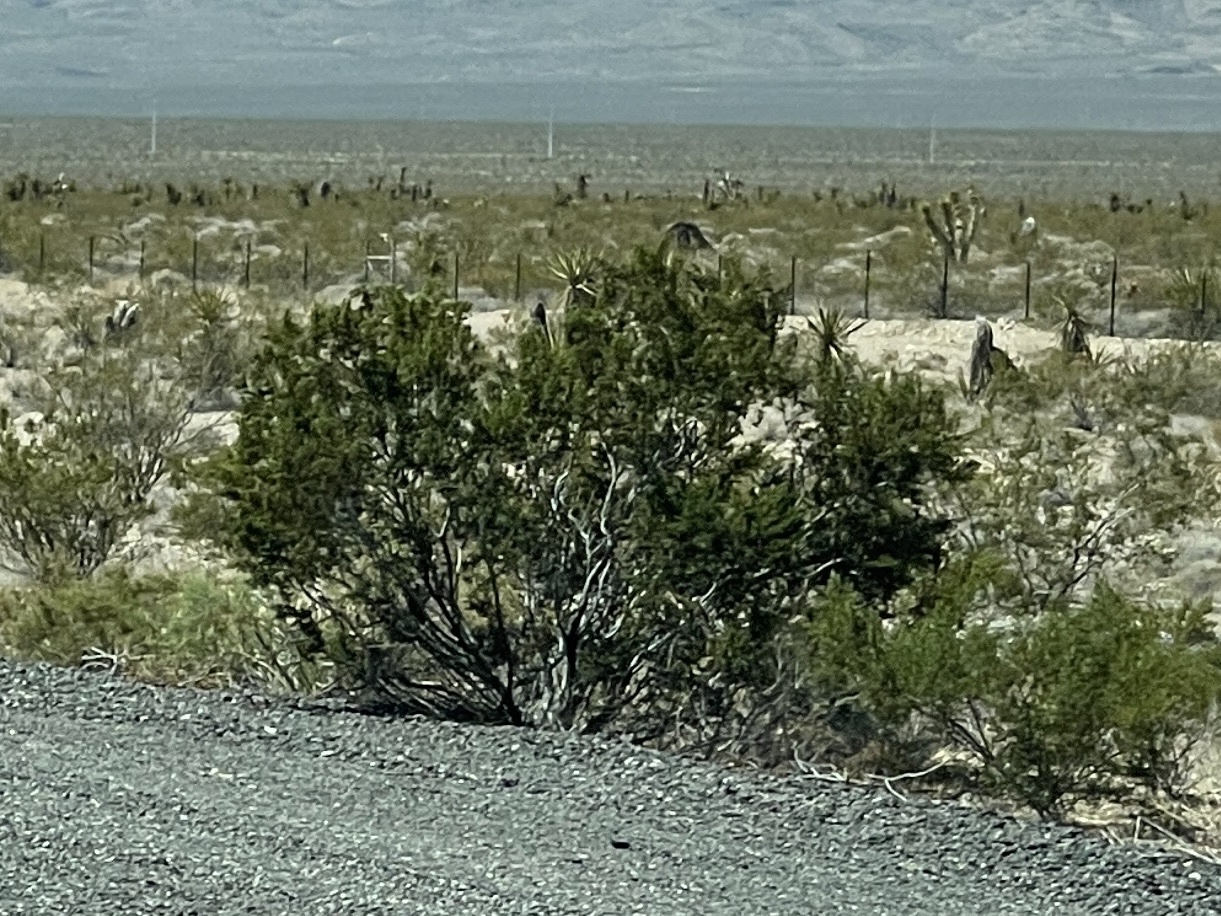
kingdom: Plantae
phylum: Tracheophyta
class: Magnoliopsida
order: Zygophyllales
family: Zygophyllaceae
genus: Larrea
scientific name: Larrea tridentata
